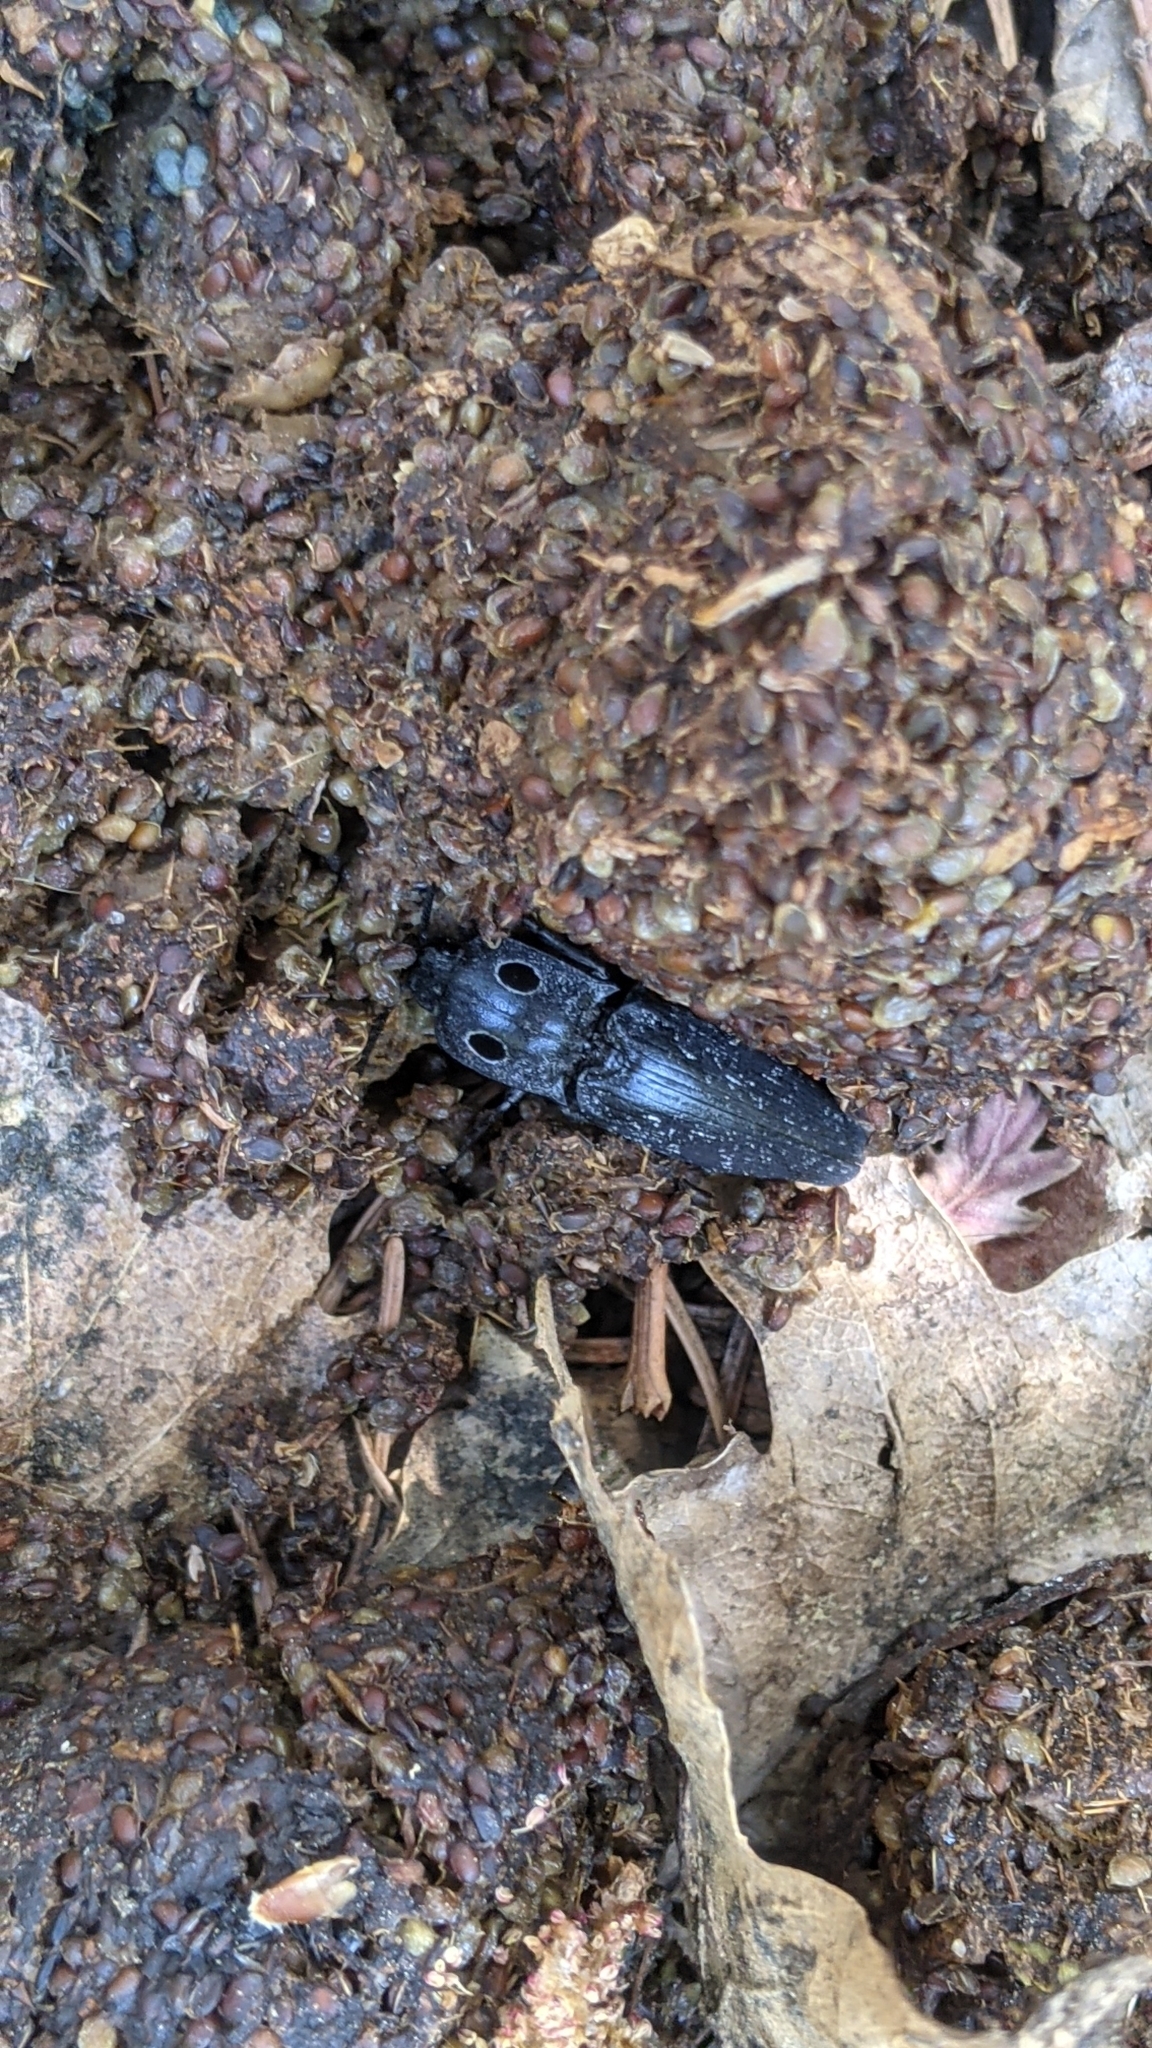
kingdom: Animalia
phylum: Arthropoda
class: Insecta
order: Coleoptera
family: Elateridae
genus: Alaus
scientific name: Alaus melanops
